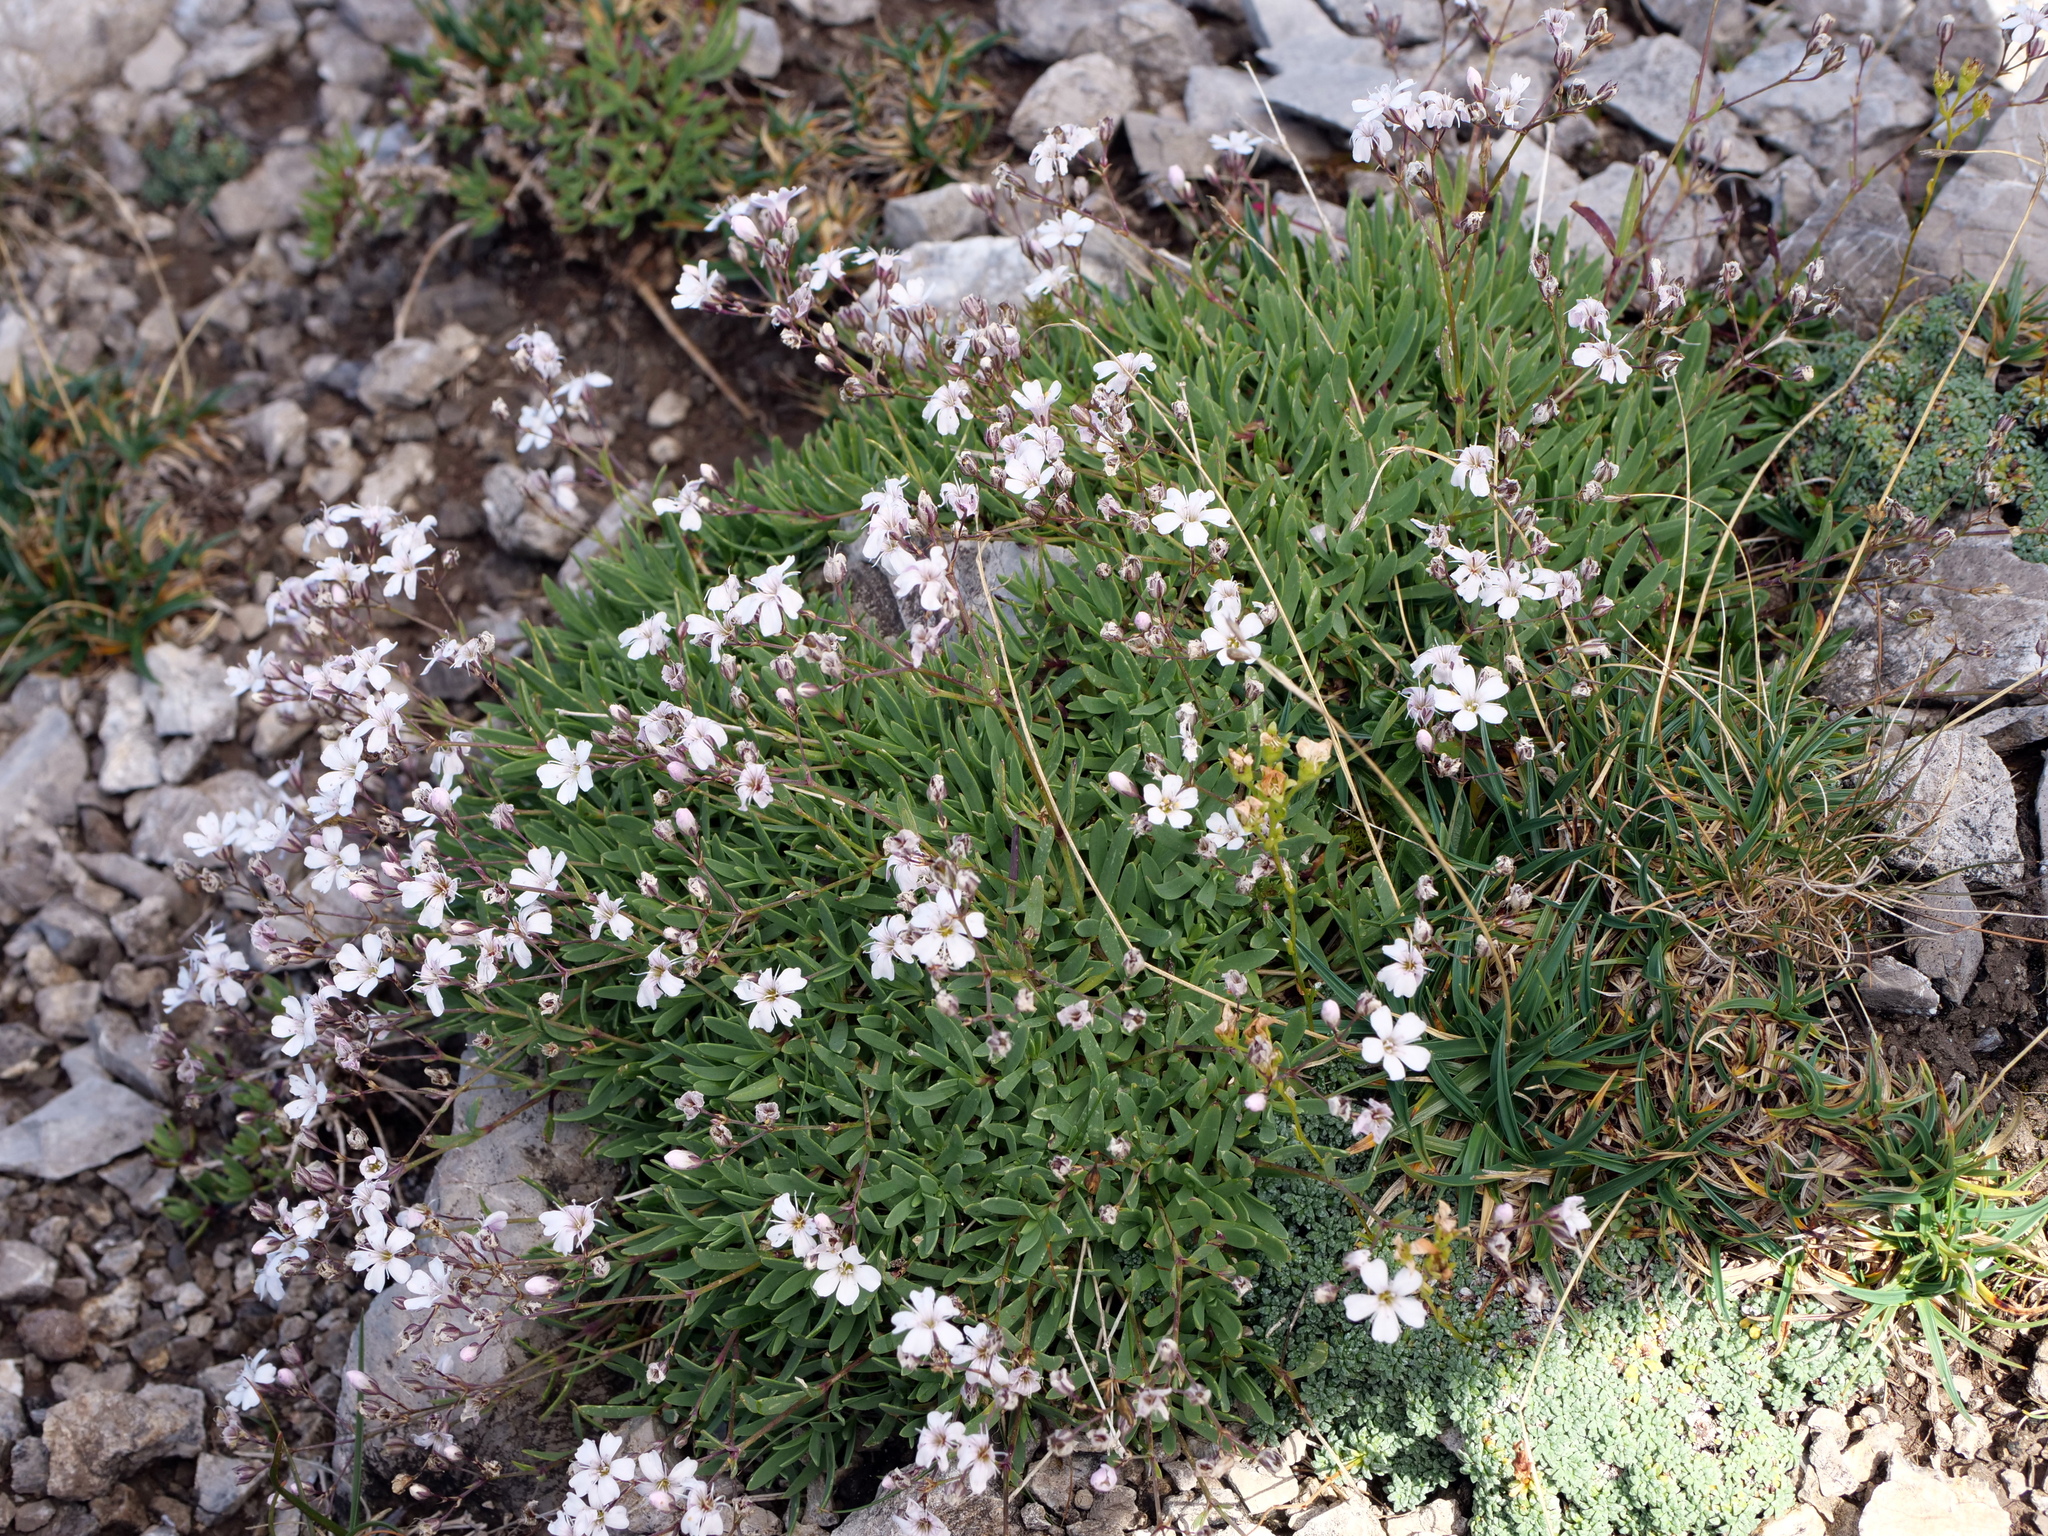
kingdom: Plantae
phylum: Tracheophyta
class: Magnoliopsida
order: Caryophyllales
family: Caryophyllaceae
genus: Gypsophila
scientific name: Gypsophila repens
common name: Creeping baby's-breath
